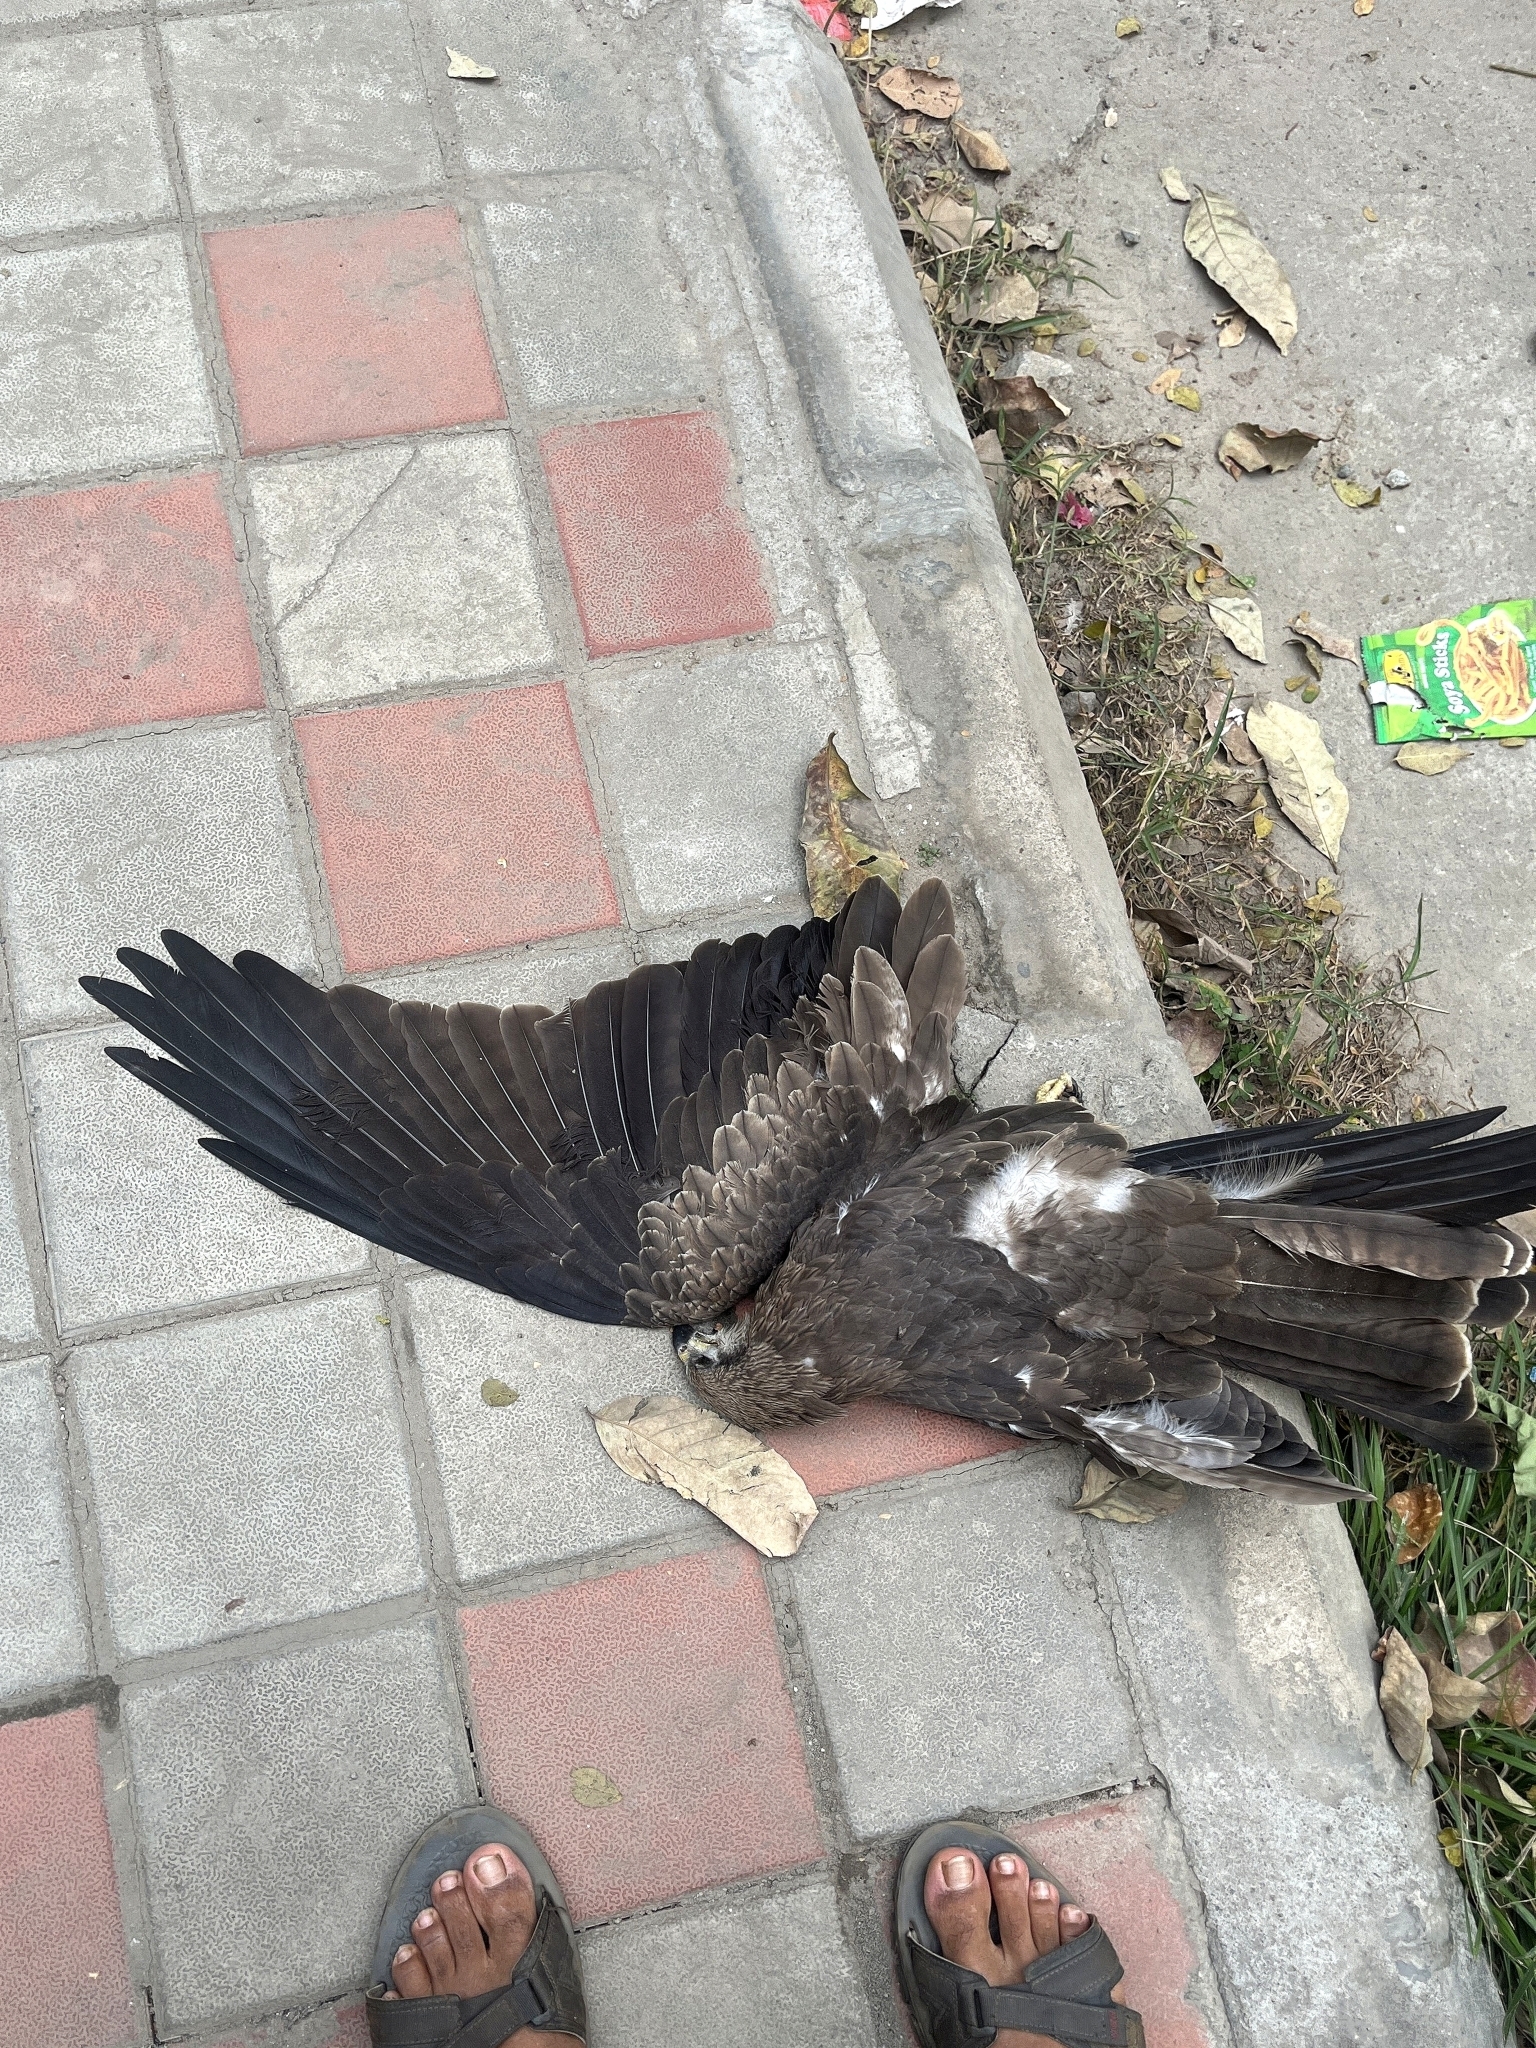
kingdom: Animalia
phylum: Chordata
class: Aves
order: Accipitriformes
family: Accipitridae
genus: Milvus
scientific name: Milvus migrans
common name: Black kite
